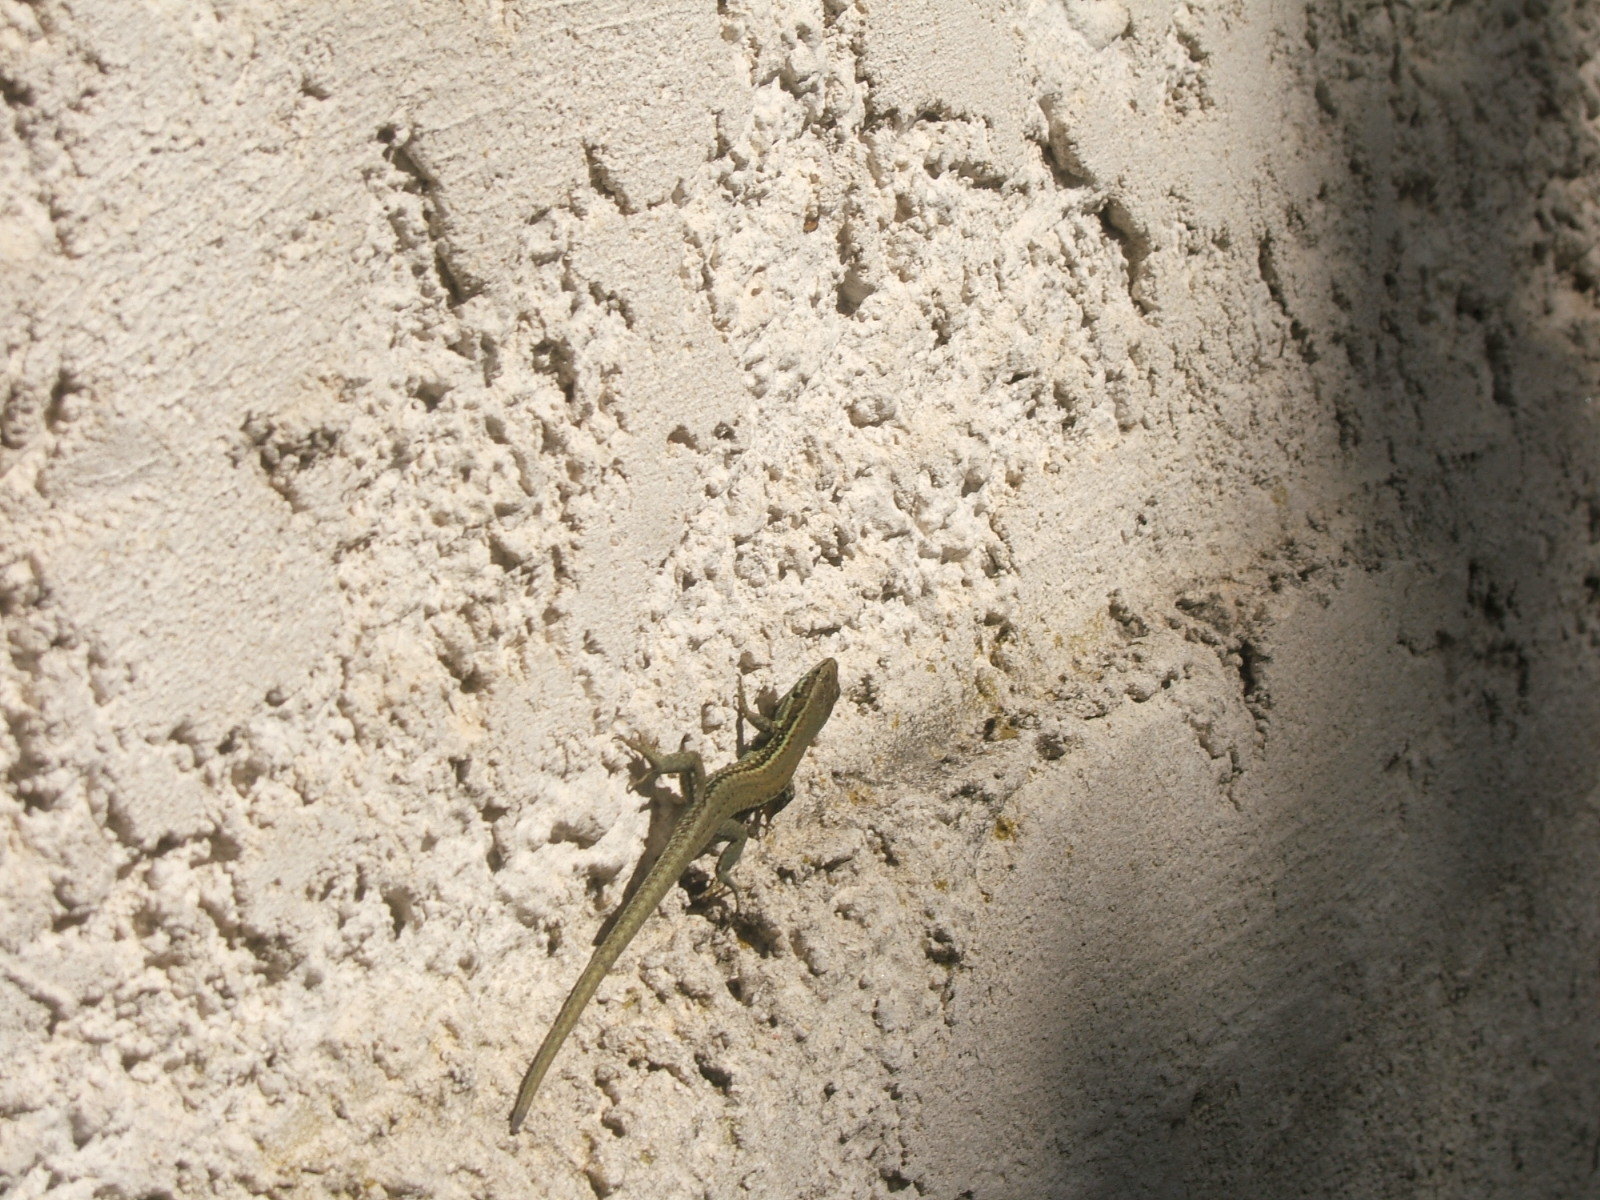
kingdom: Animalia
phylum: Chordata
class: Squamata
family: Lacertidae
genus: Podarcis
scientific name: Podarcis muralis
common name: Common wall lizard
